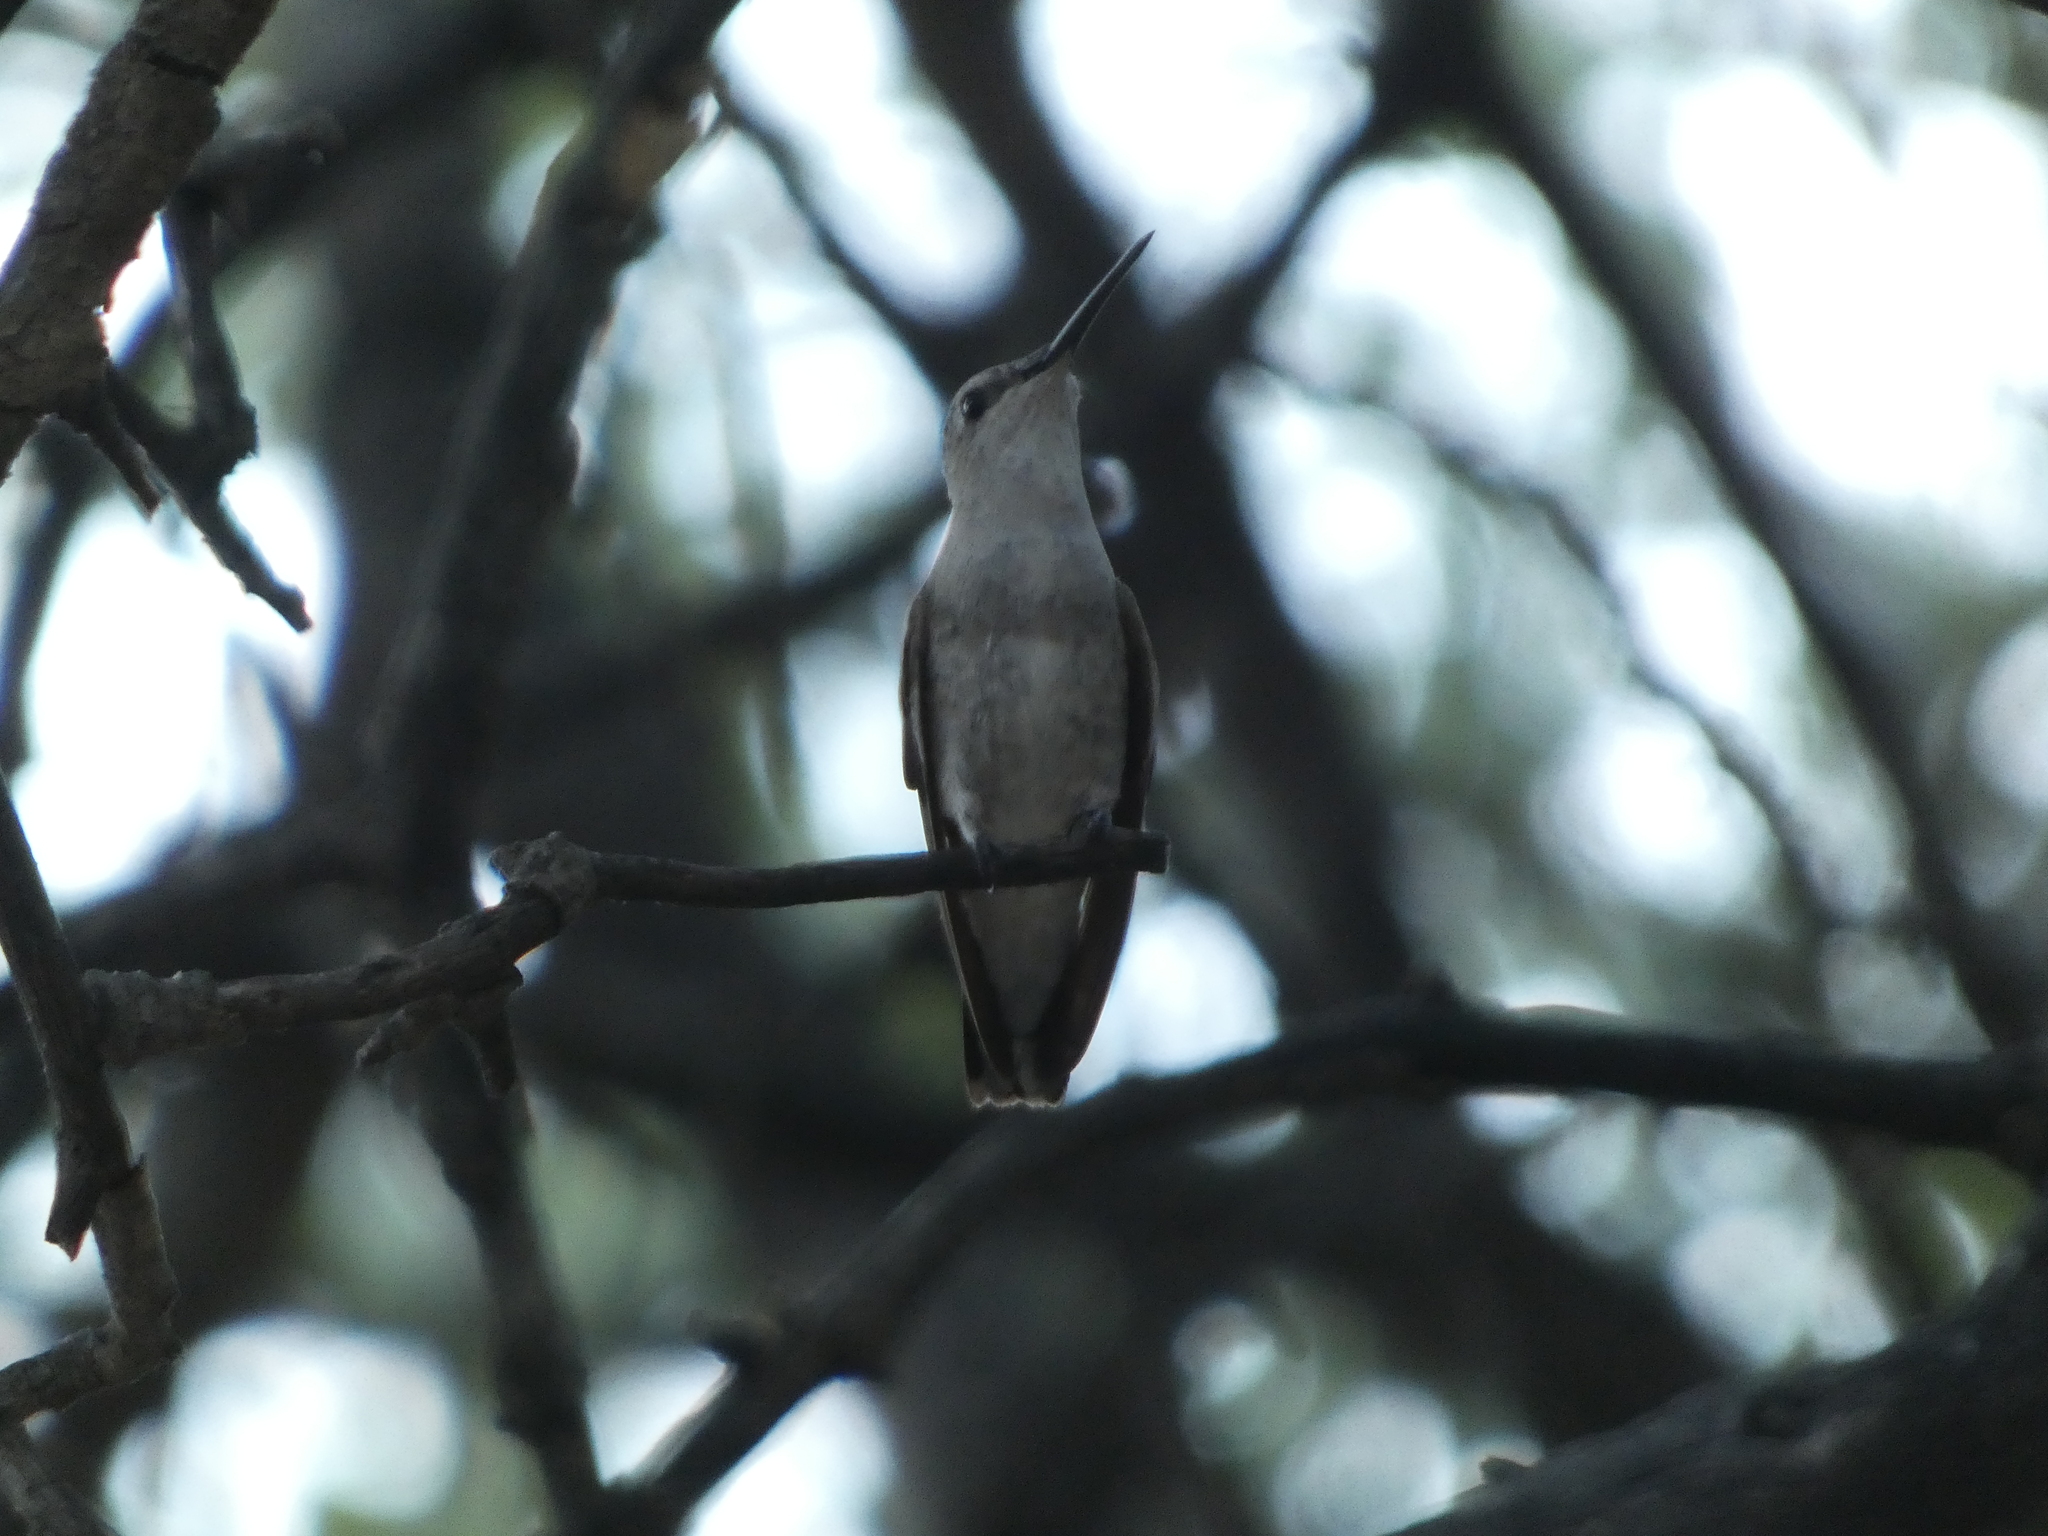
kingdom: Animalia
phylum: Chordata
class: Aves
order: Apodiformes
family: Trochilidae
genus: Archilochus
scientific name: Archilochus alexandri
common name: Black-chinned hummingbird
